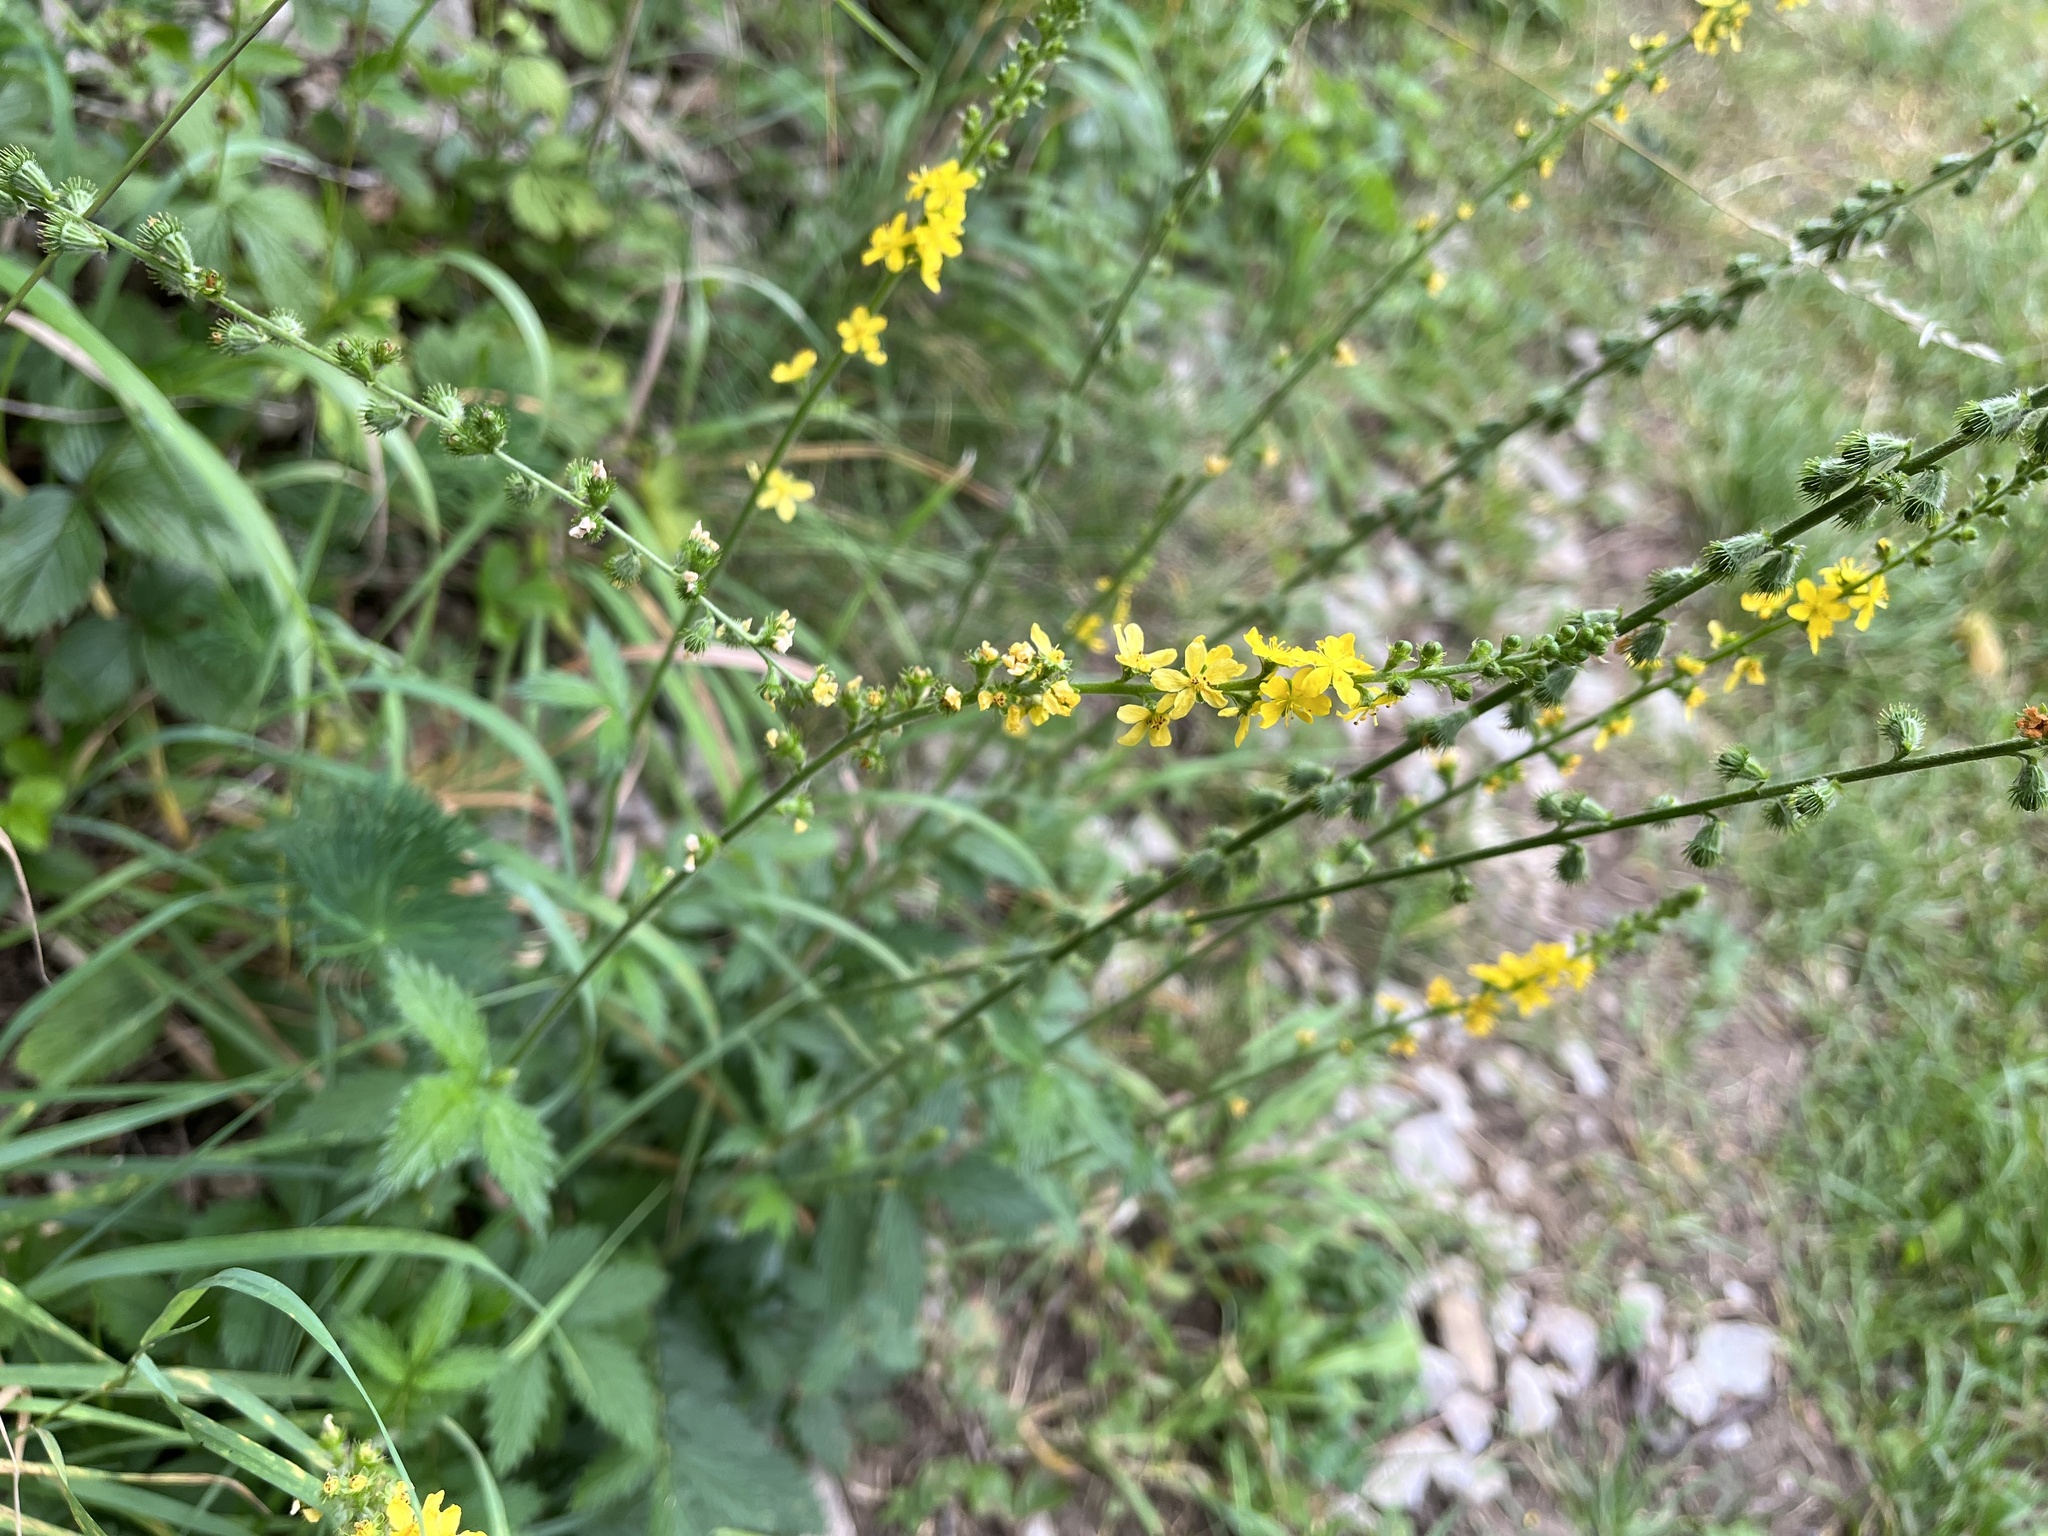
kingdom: Plantae
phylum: Tracheophyta
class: Magnoliopsida
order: Rosales
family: Rosaceae
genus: Agrimonia
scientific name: Agrimonia eupatoria
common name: Agrimony
